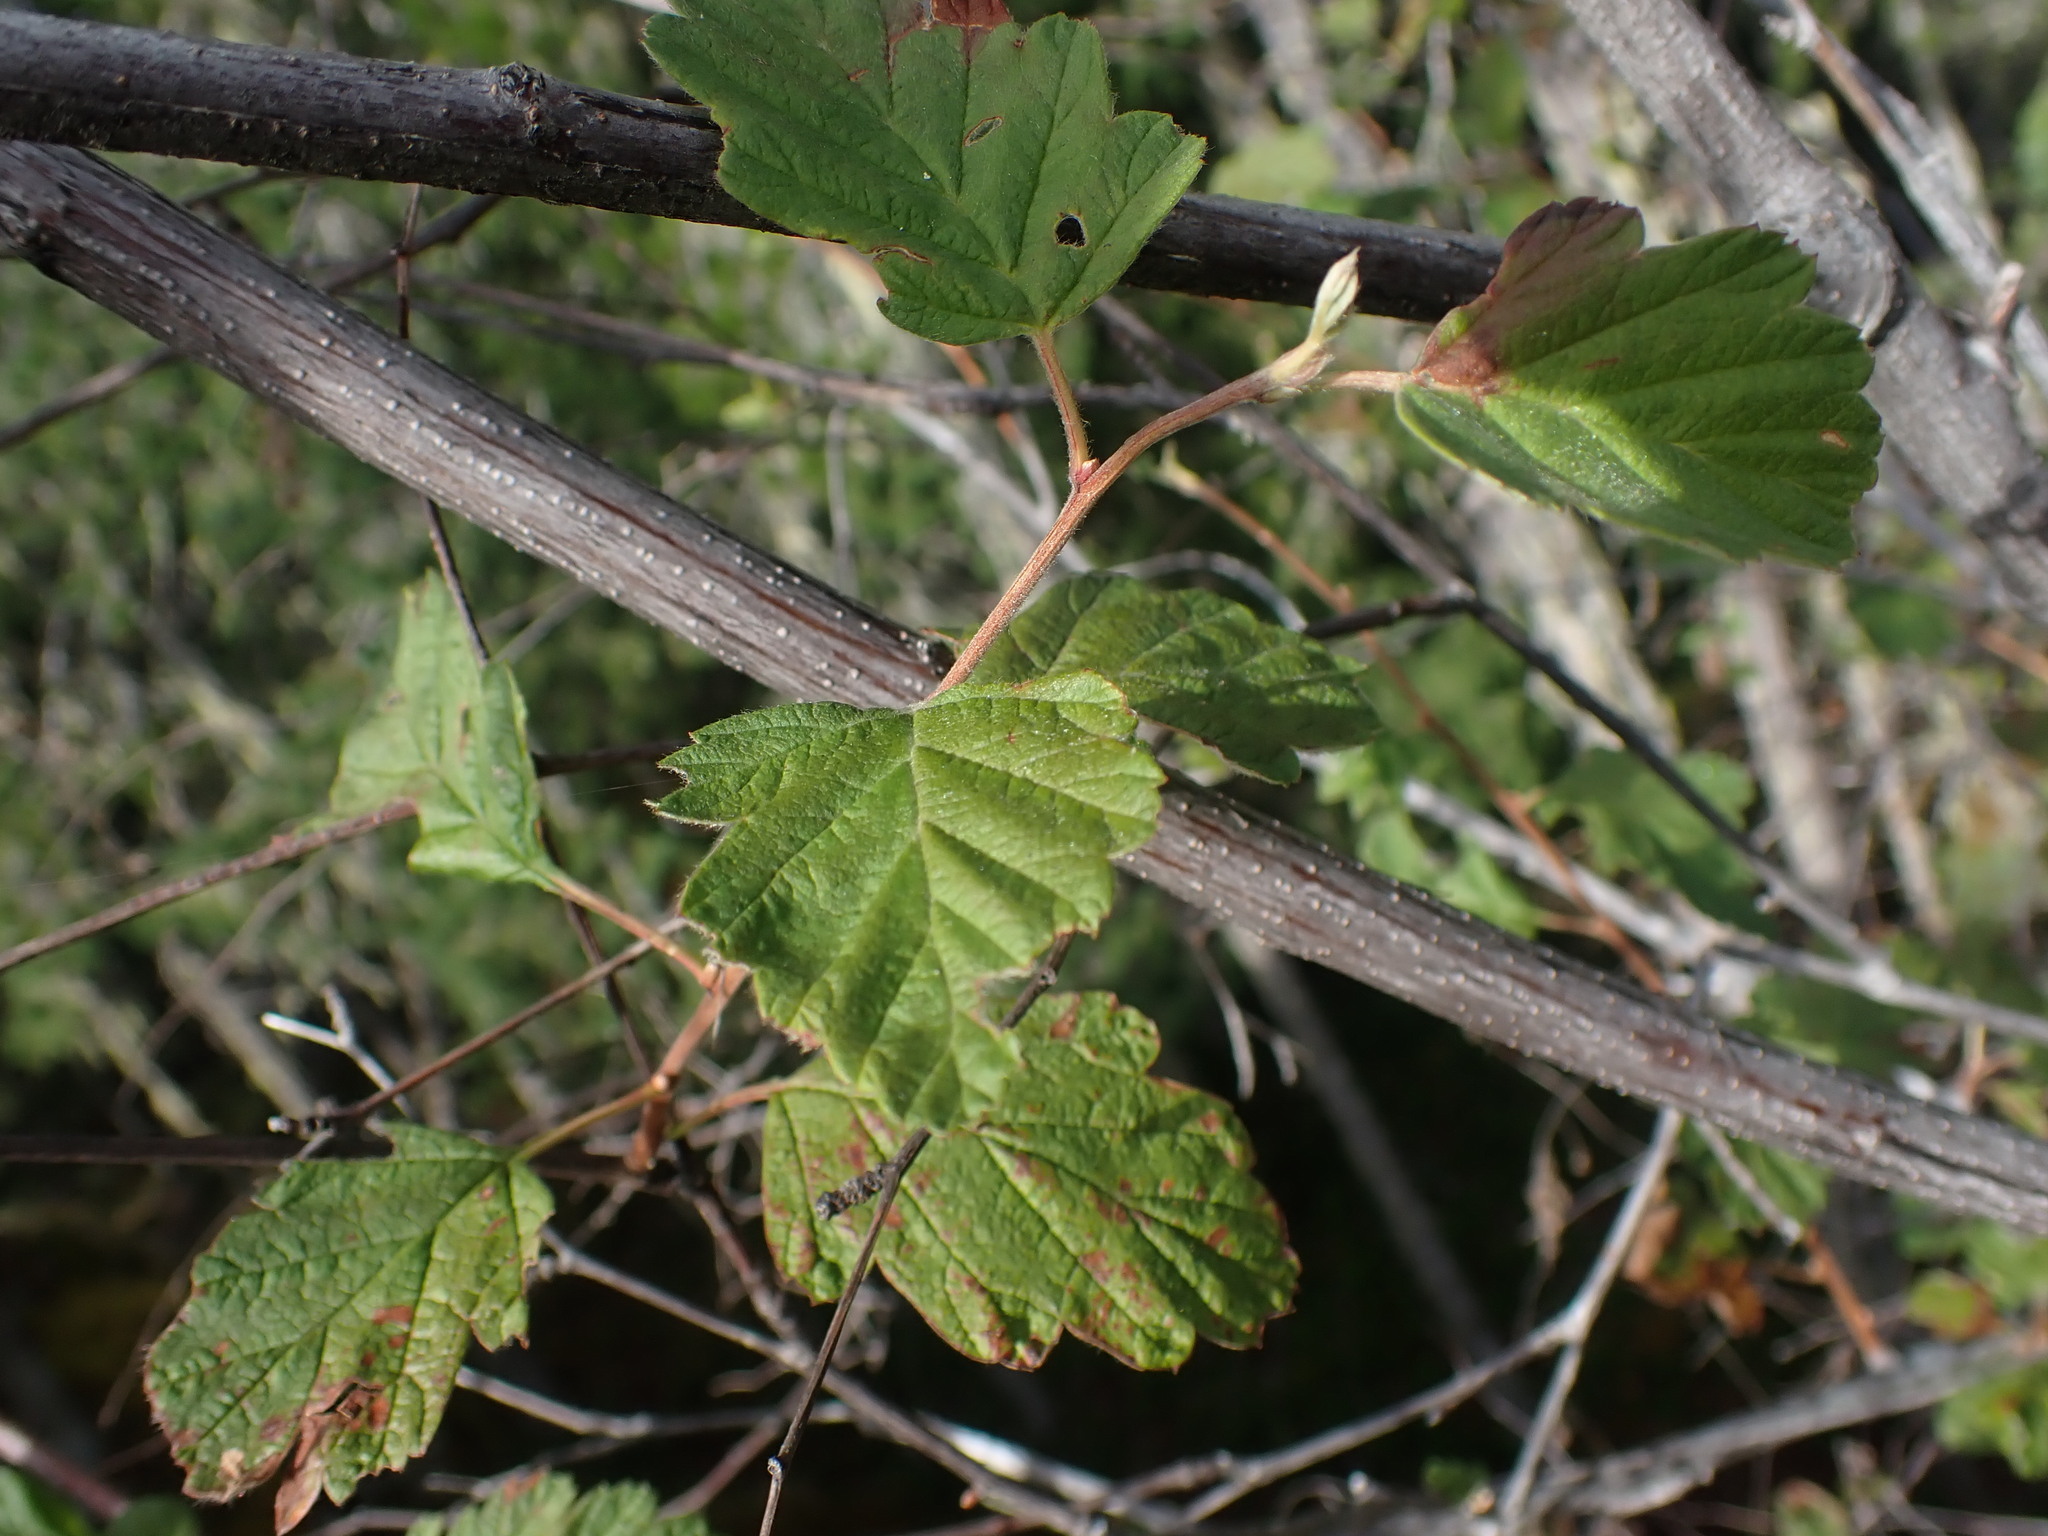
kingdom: Plantae
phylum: Tracheophyta
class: Magnoliopsida
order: Rosales
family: Rosaceae
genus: Holodiscus
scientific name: Holodiscus discolor
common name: Oceanspray
